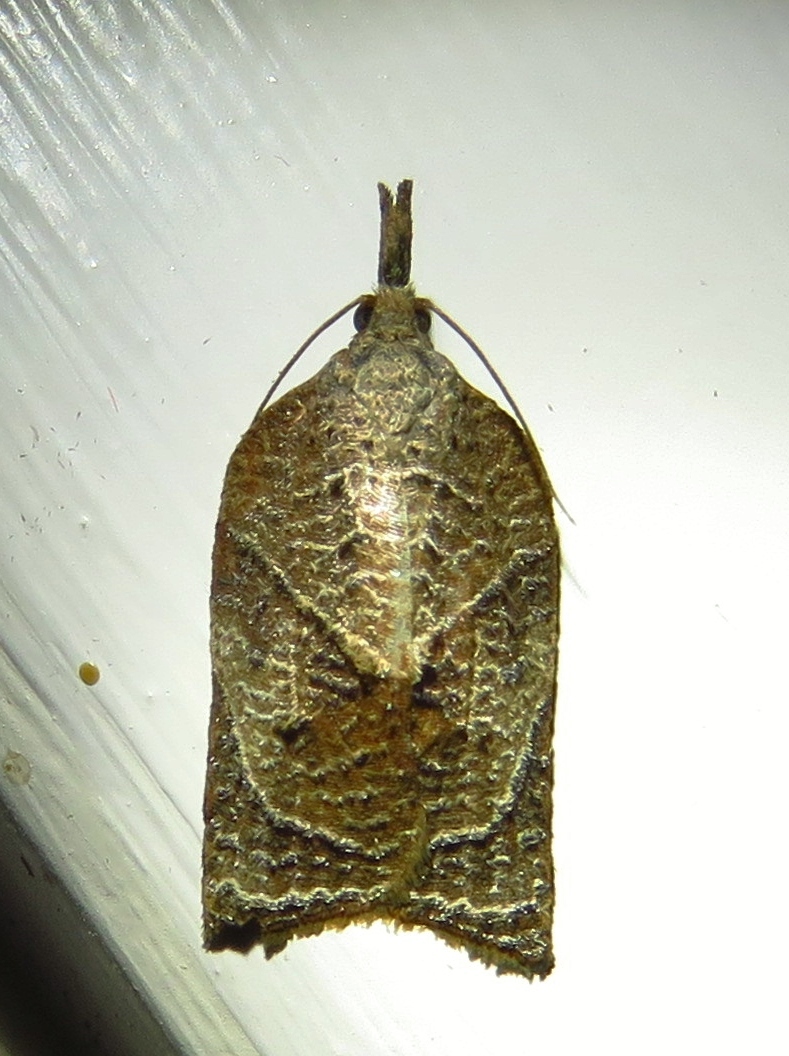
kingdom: Animalia
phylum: Arthropoda
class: Insecta
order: Lepidoptera
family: Tortricidae
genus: Platynota
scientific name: Platynota rostrana
